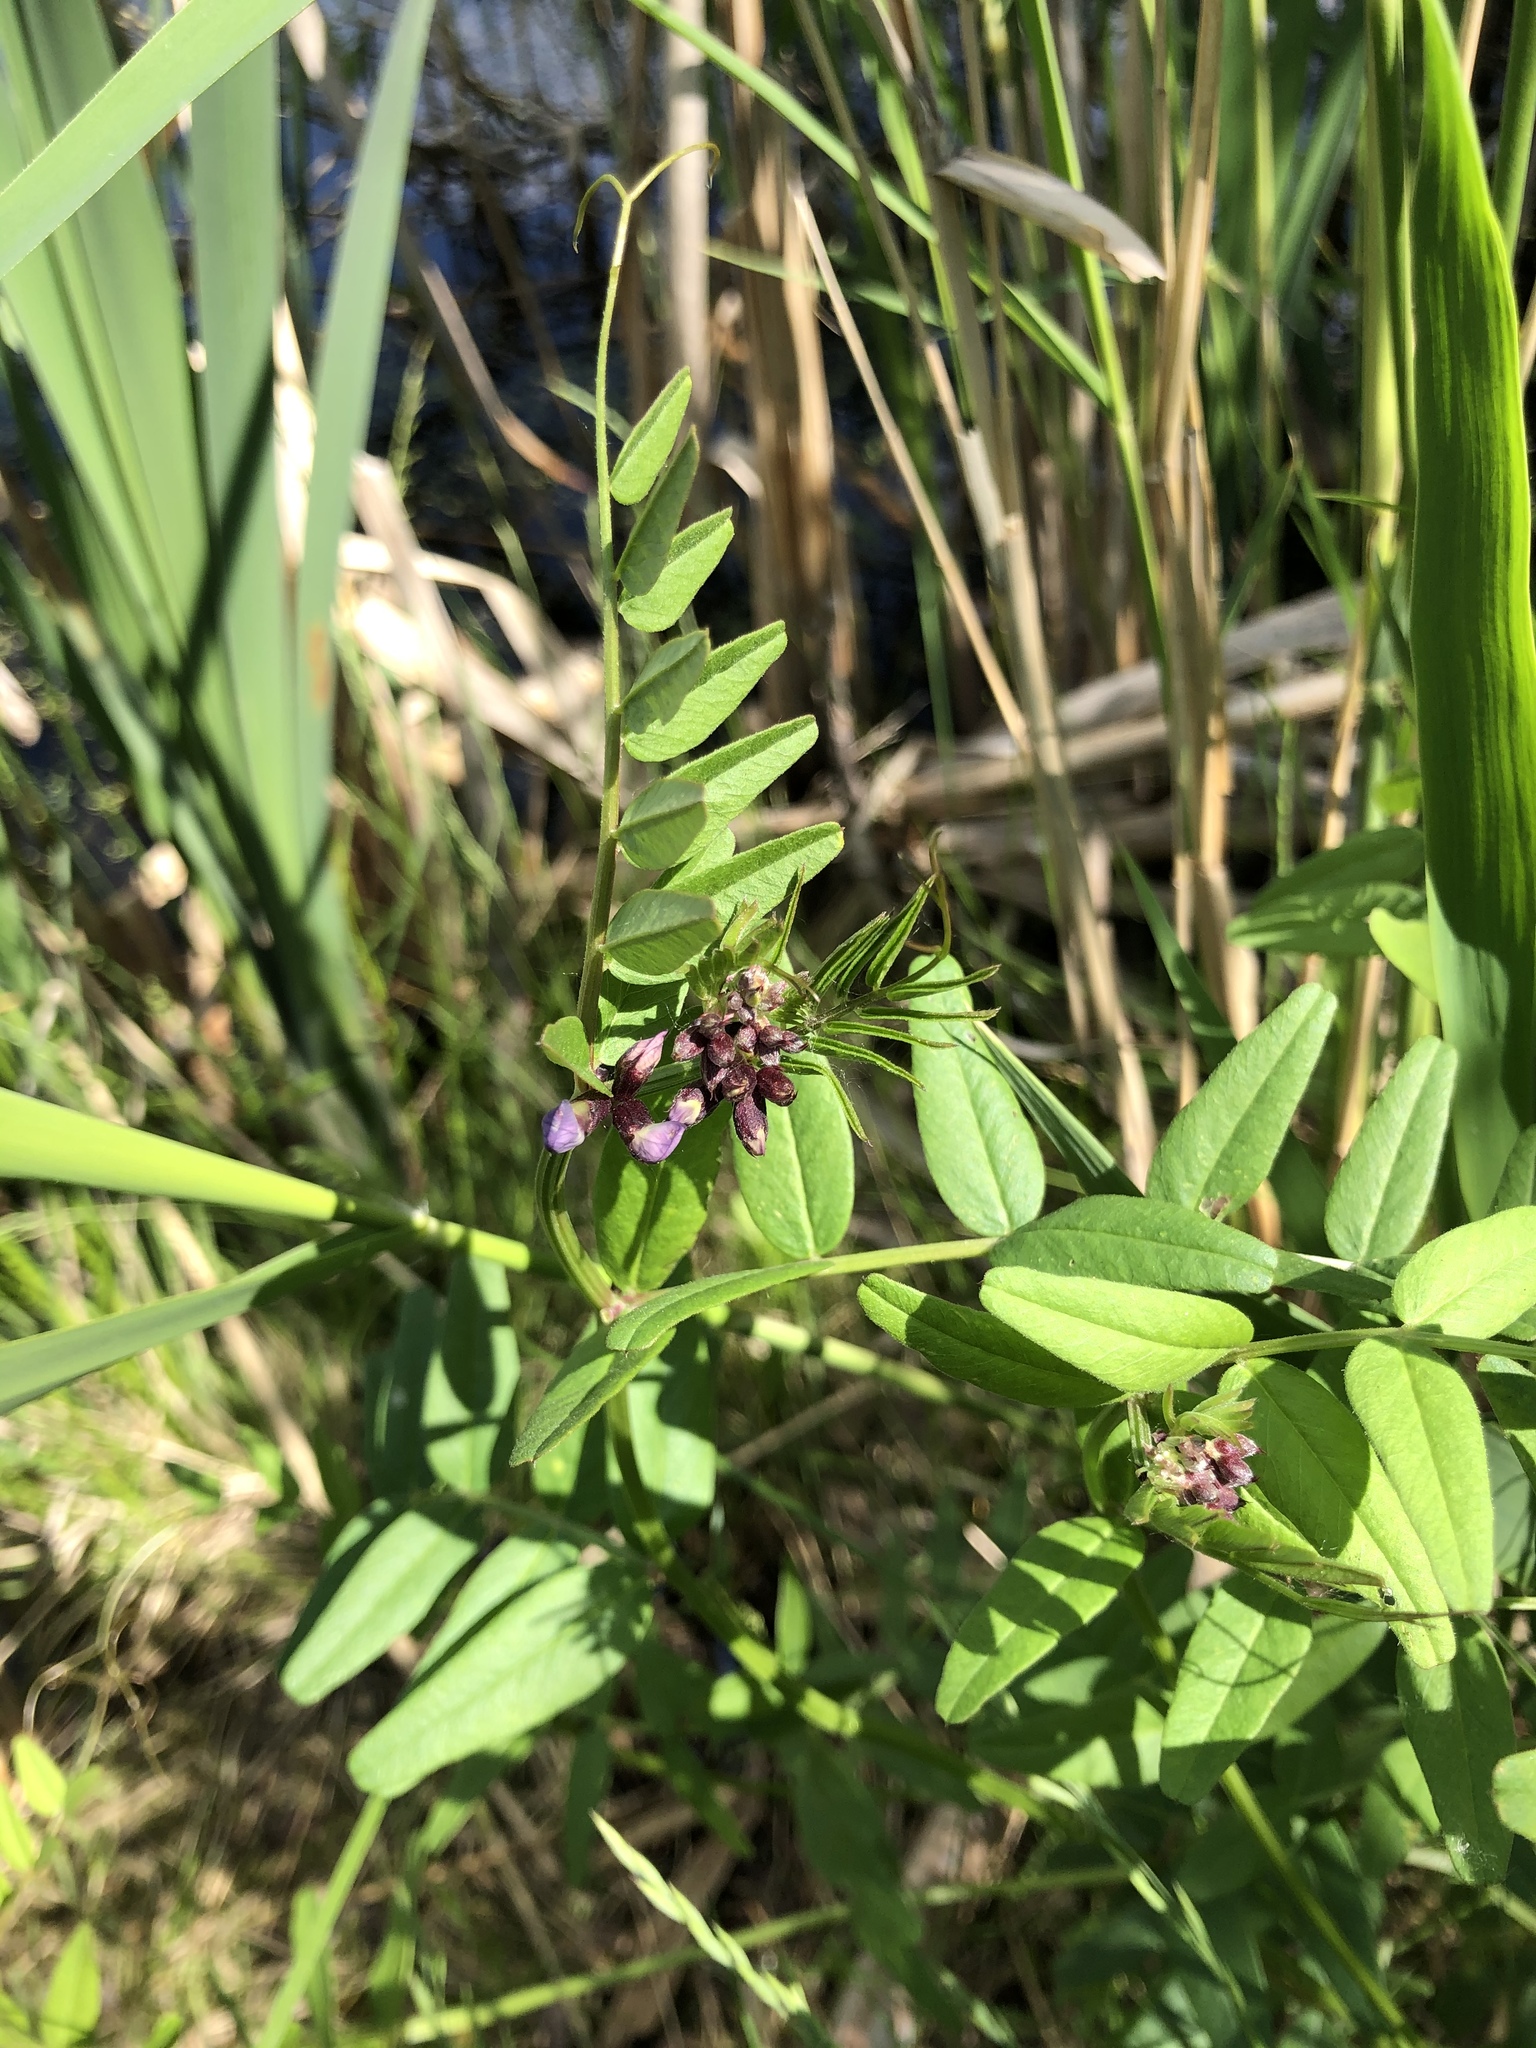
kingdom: Plantae
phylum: Tracheophyta
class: Magnoliopsida
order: Fabales
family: Fabaceae
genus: Vicia
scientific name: Vicia sepium
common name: Bush vetch
